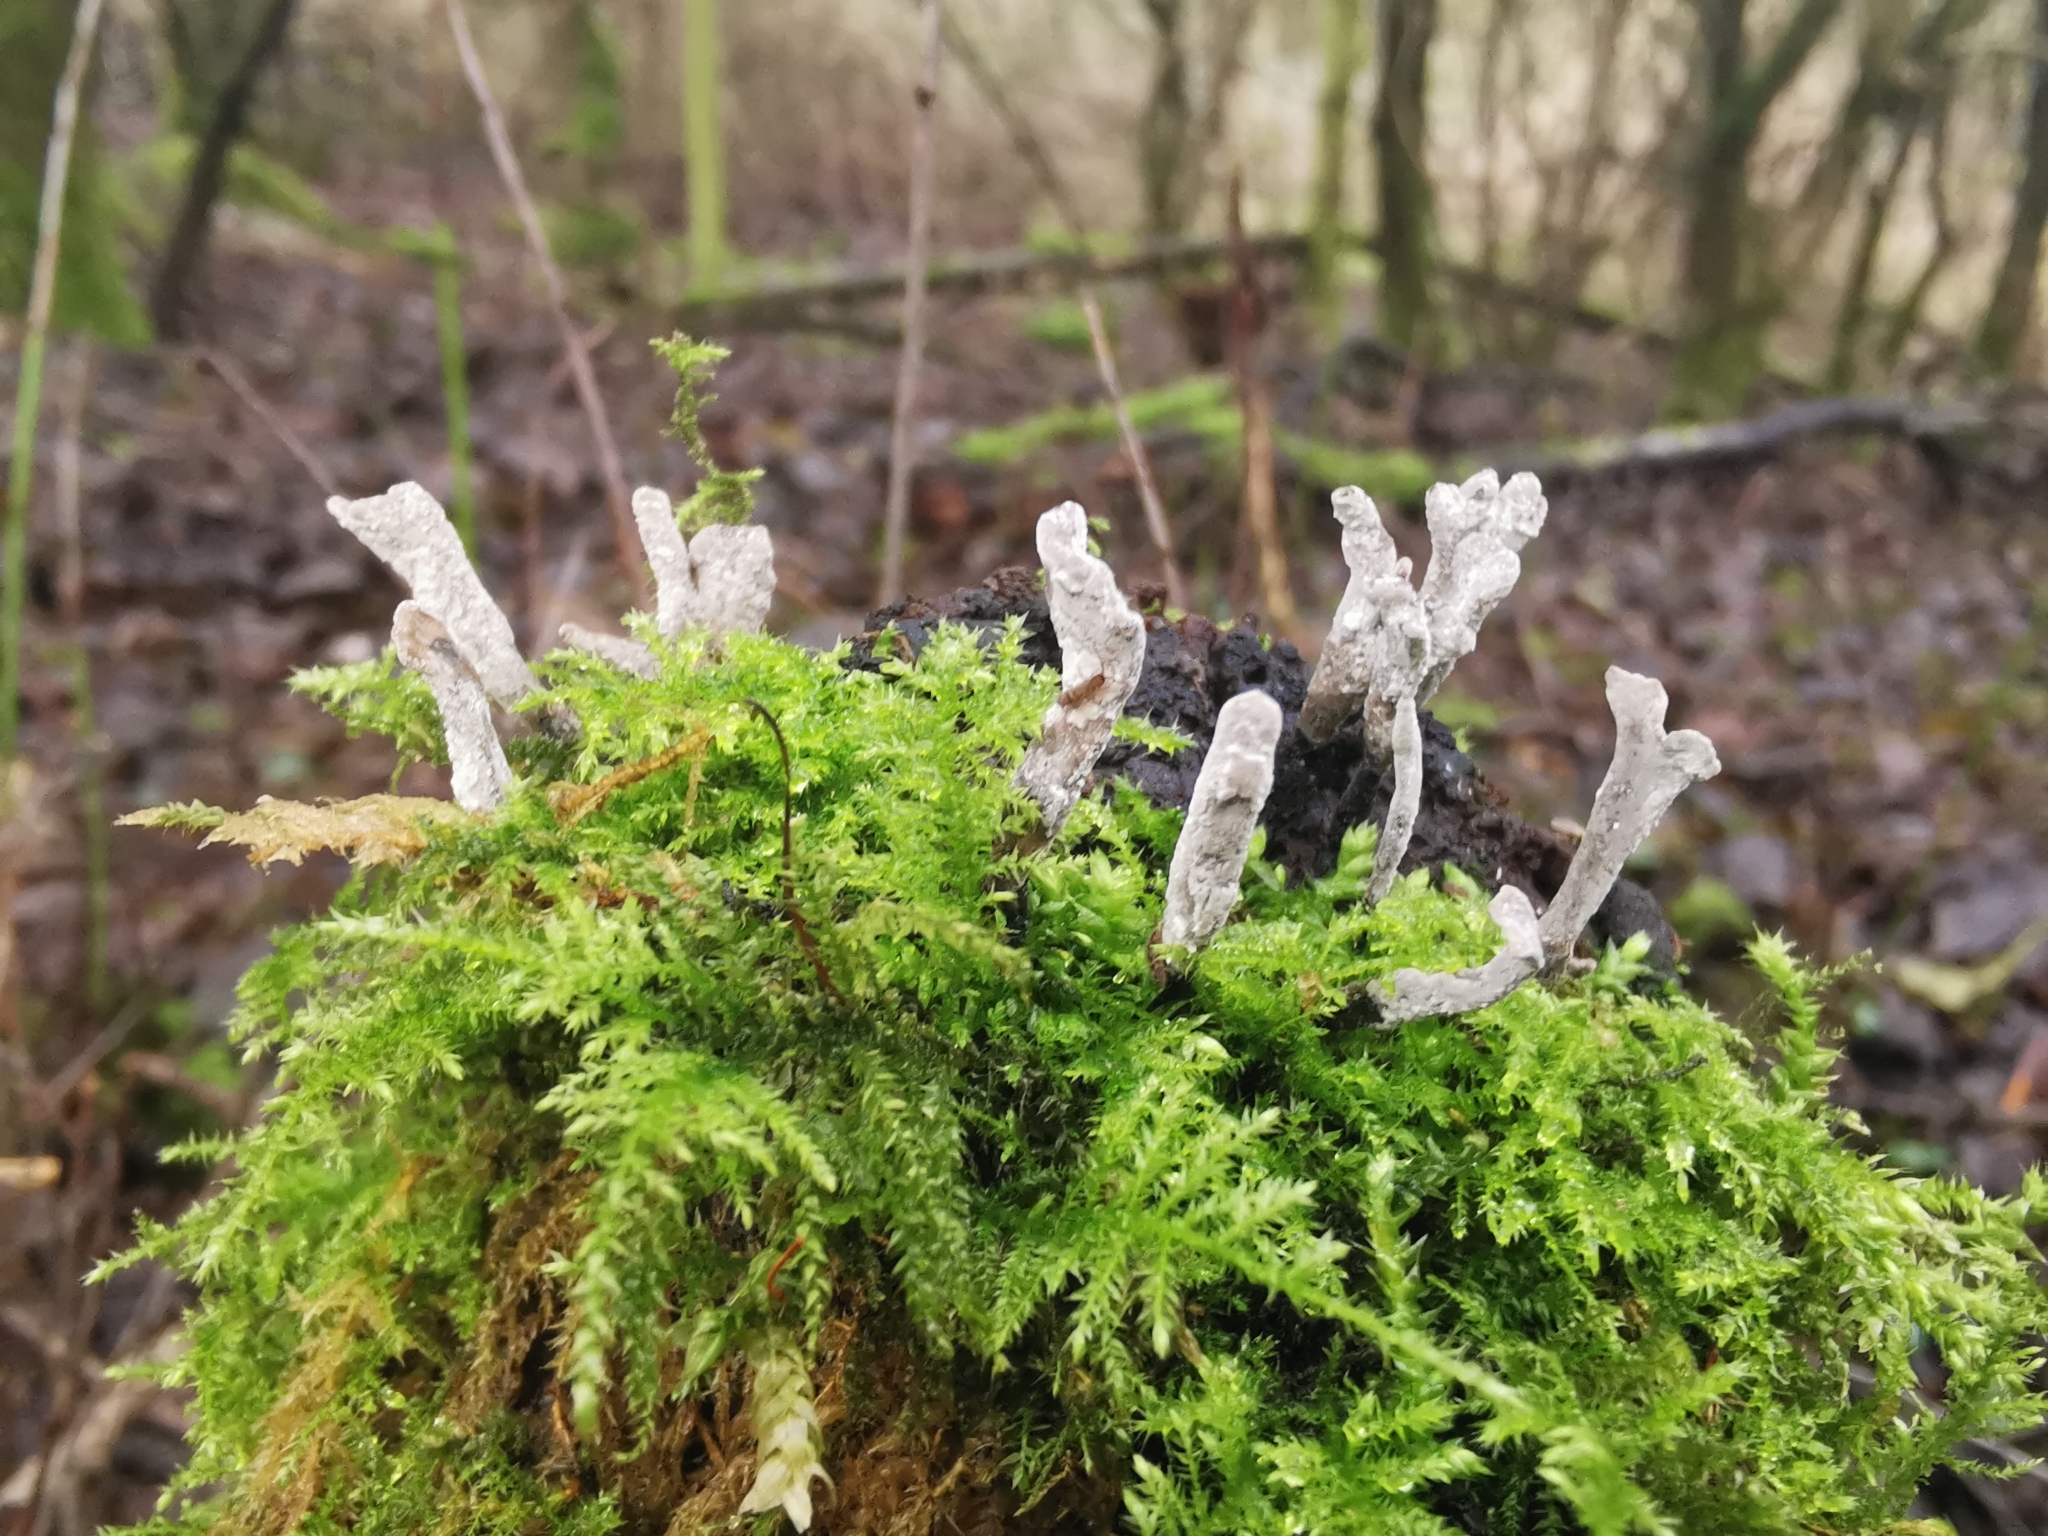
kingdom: Fungi
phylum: Ascomycota
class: Sordariomycetes
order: Xylariales
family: Xylariaceae
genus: Xylaria
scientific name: Xylaria hypoxylon
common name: Candle-snuff fungus
